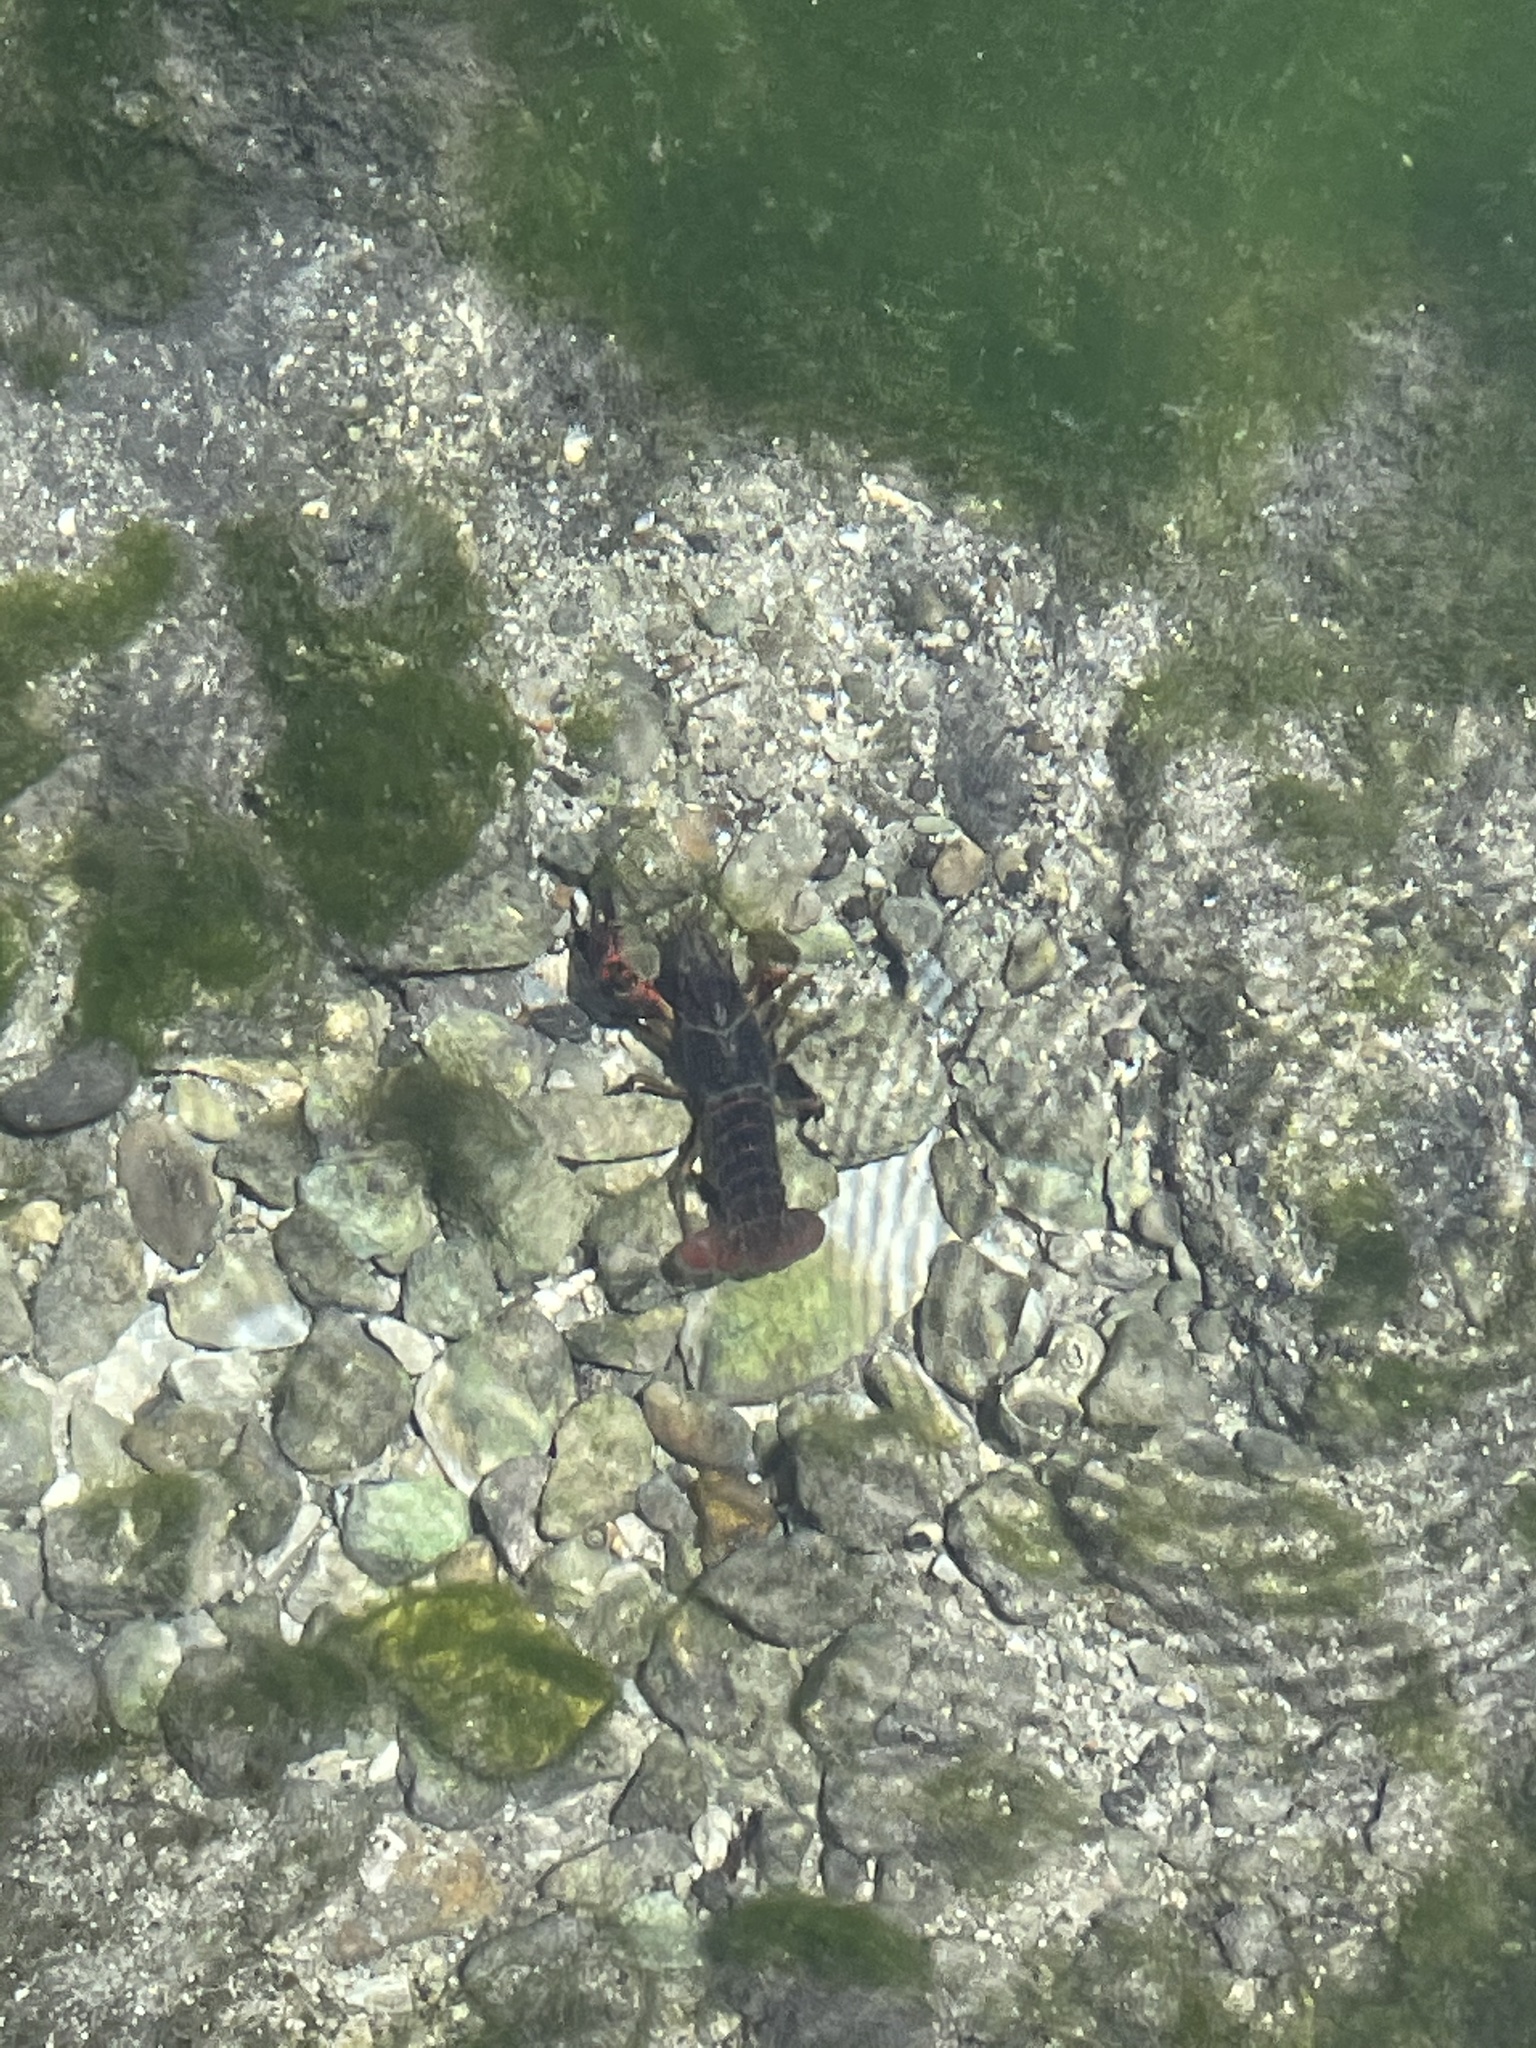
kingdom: Animalia
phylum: Arthropoda
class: Malacostraca
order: Decapoda
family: Cambaridae
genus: Procambarus
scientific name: Procambarus clarkii
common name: Red swamp crayfish
